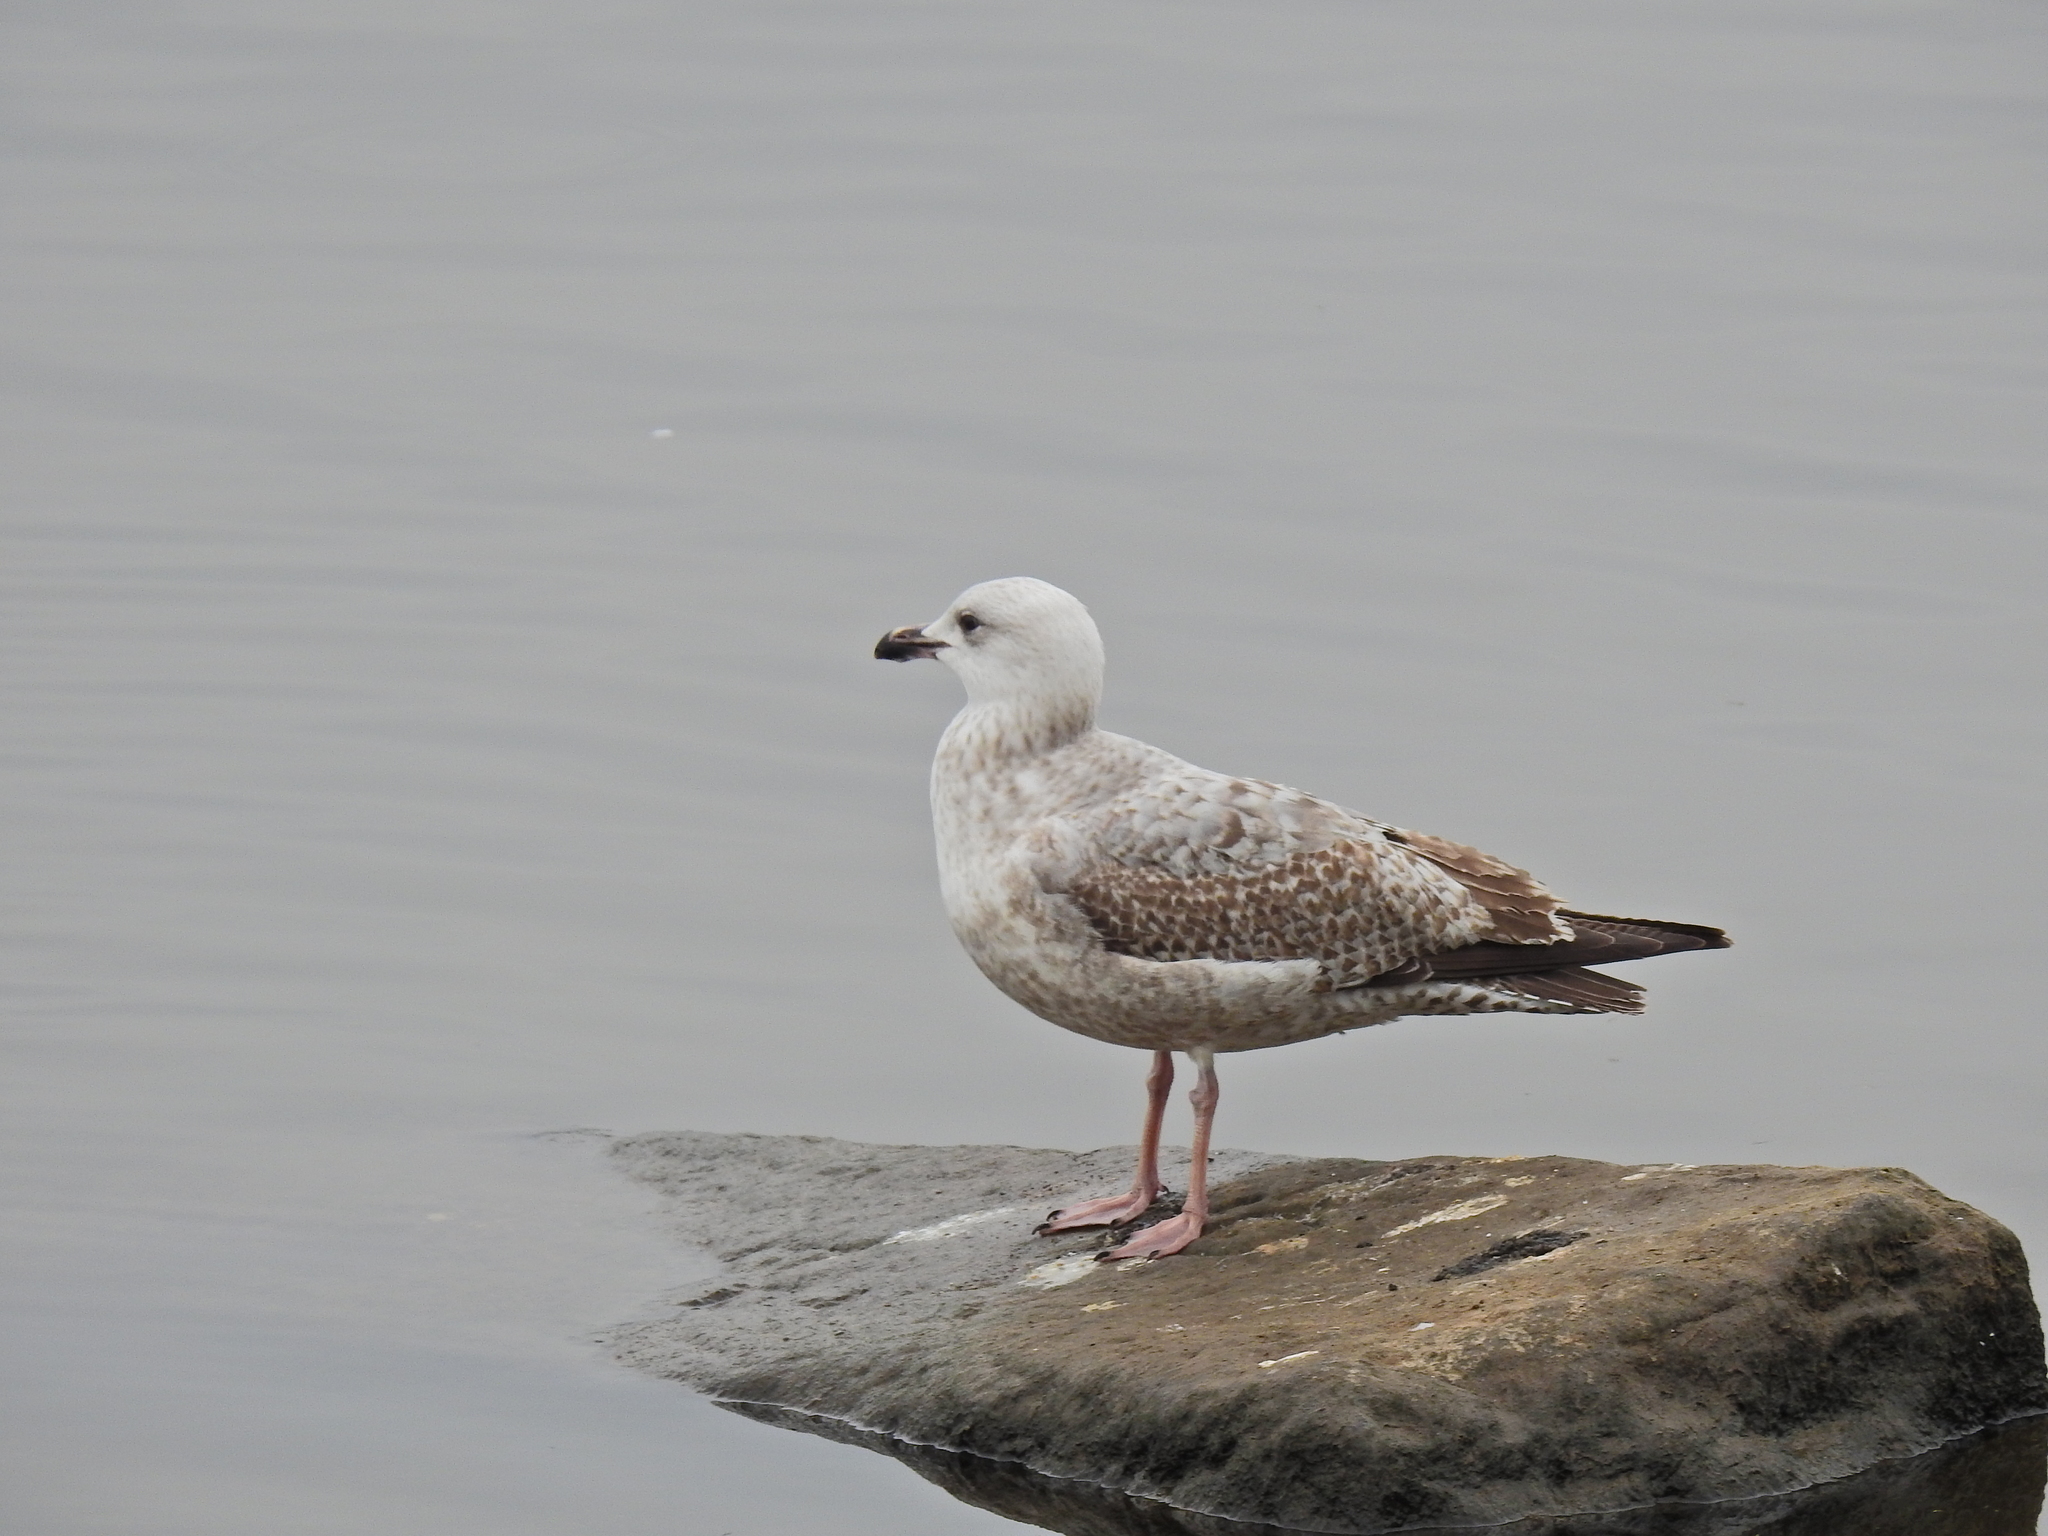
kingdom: Animalia
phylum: Chordata
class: Aves
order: Charadriiformes
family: Laridae
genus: Larus
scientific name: Larus argentatus
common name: Herring gull
